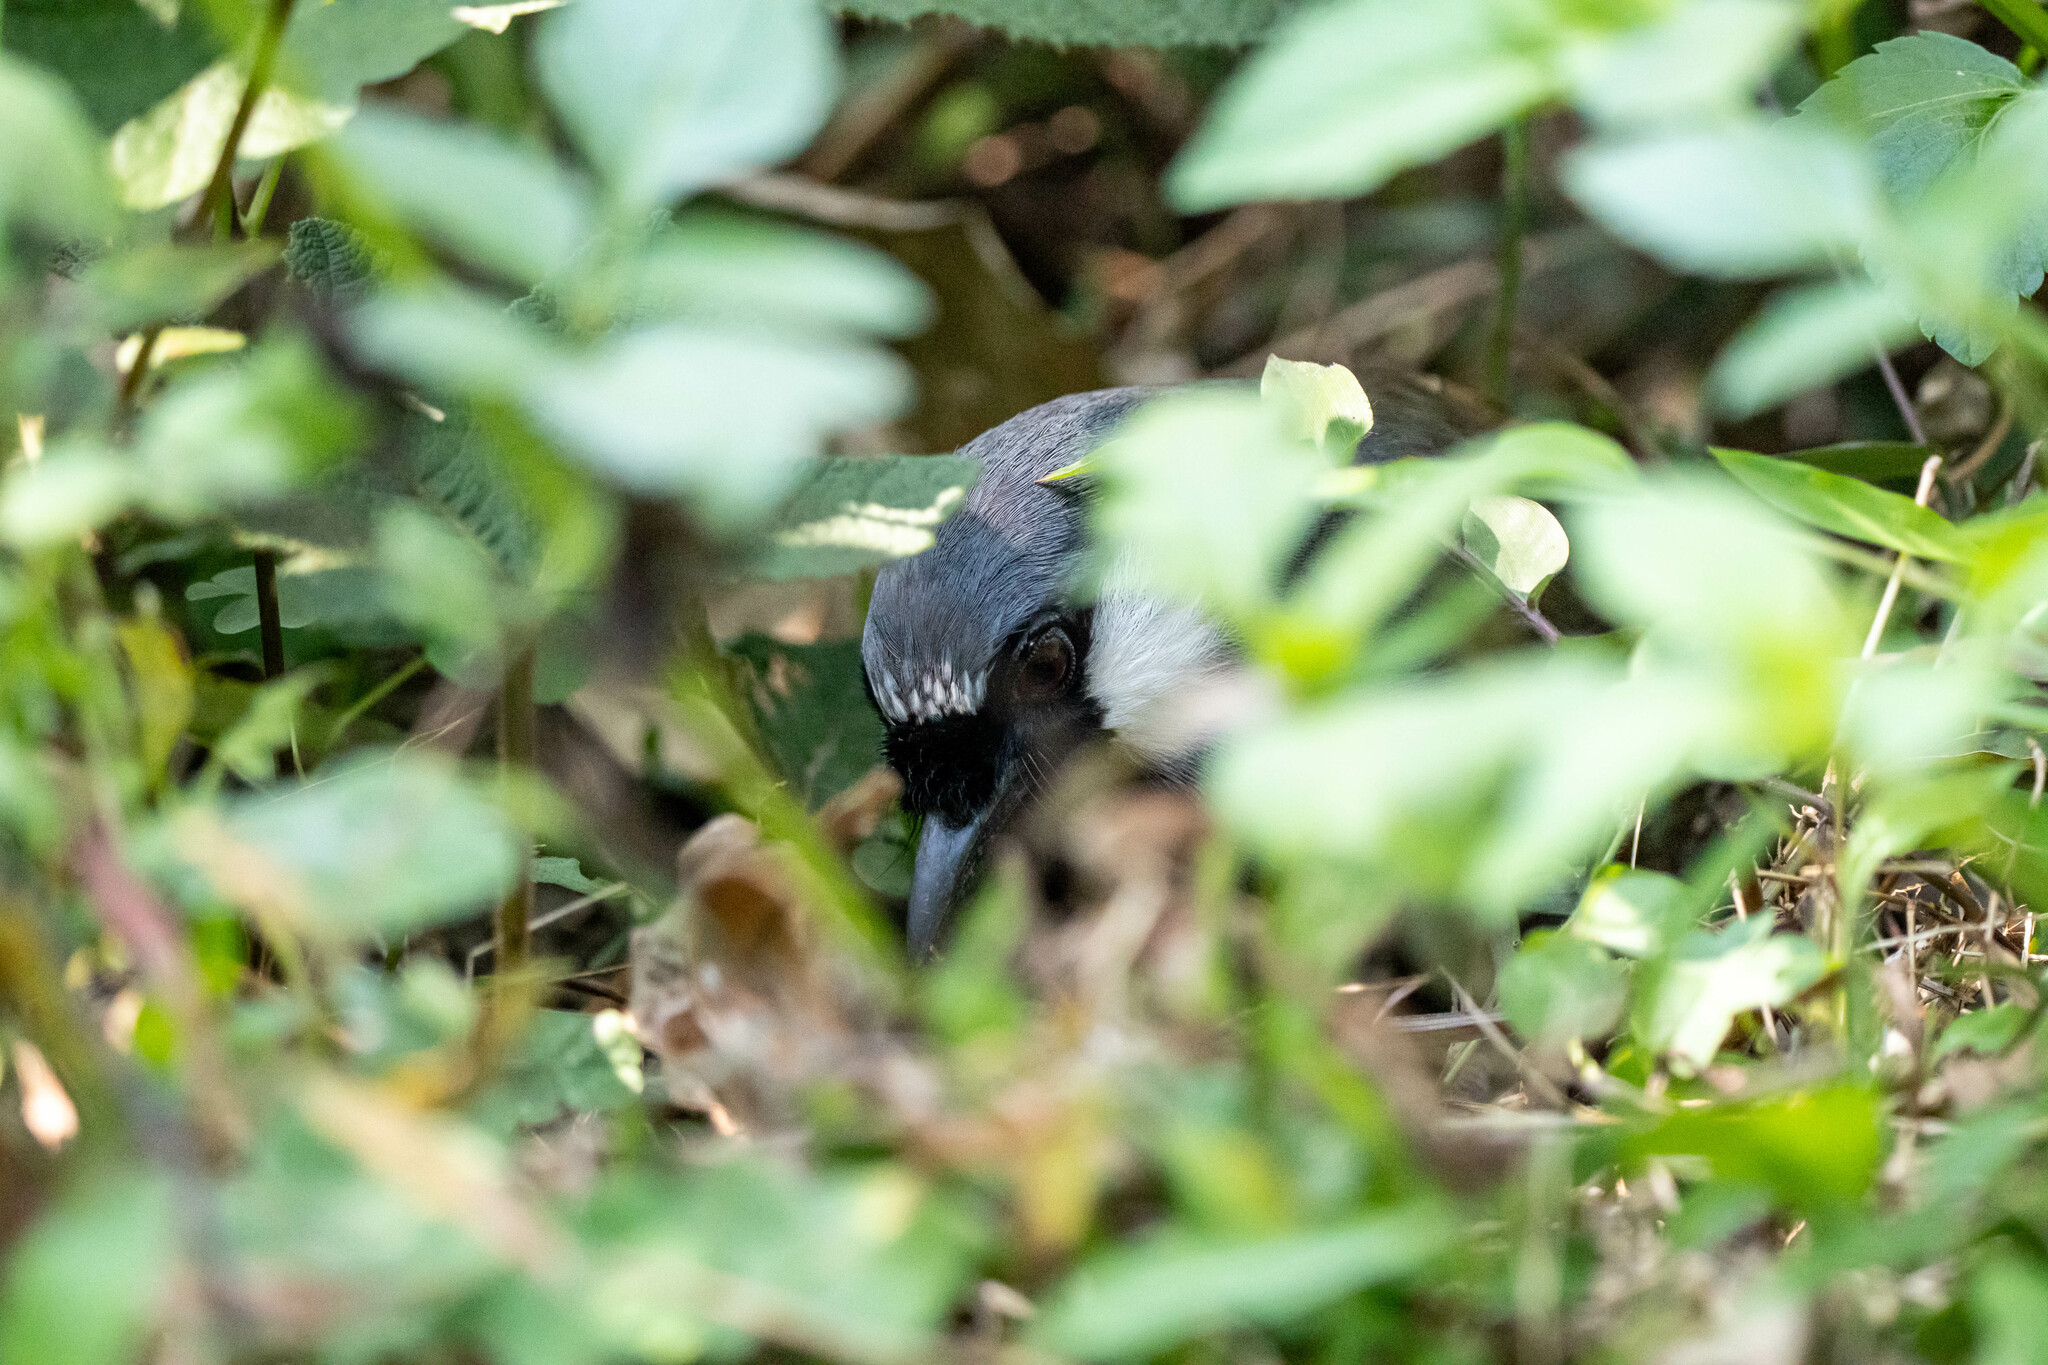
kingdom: Animalia
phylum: Chordata
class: Aves
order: Passeriformes
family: Leiothrichidae
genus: Garrulax
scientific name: Garrulax chinensis
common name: Black-throated laughingthrush
